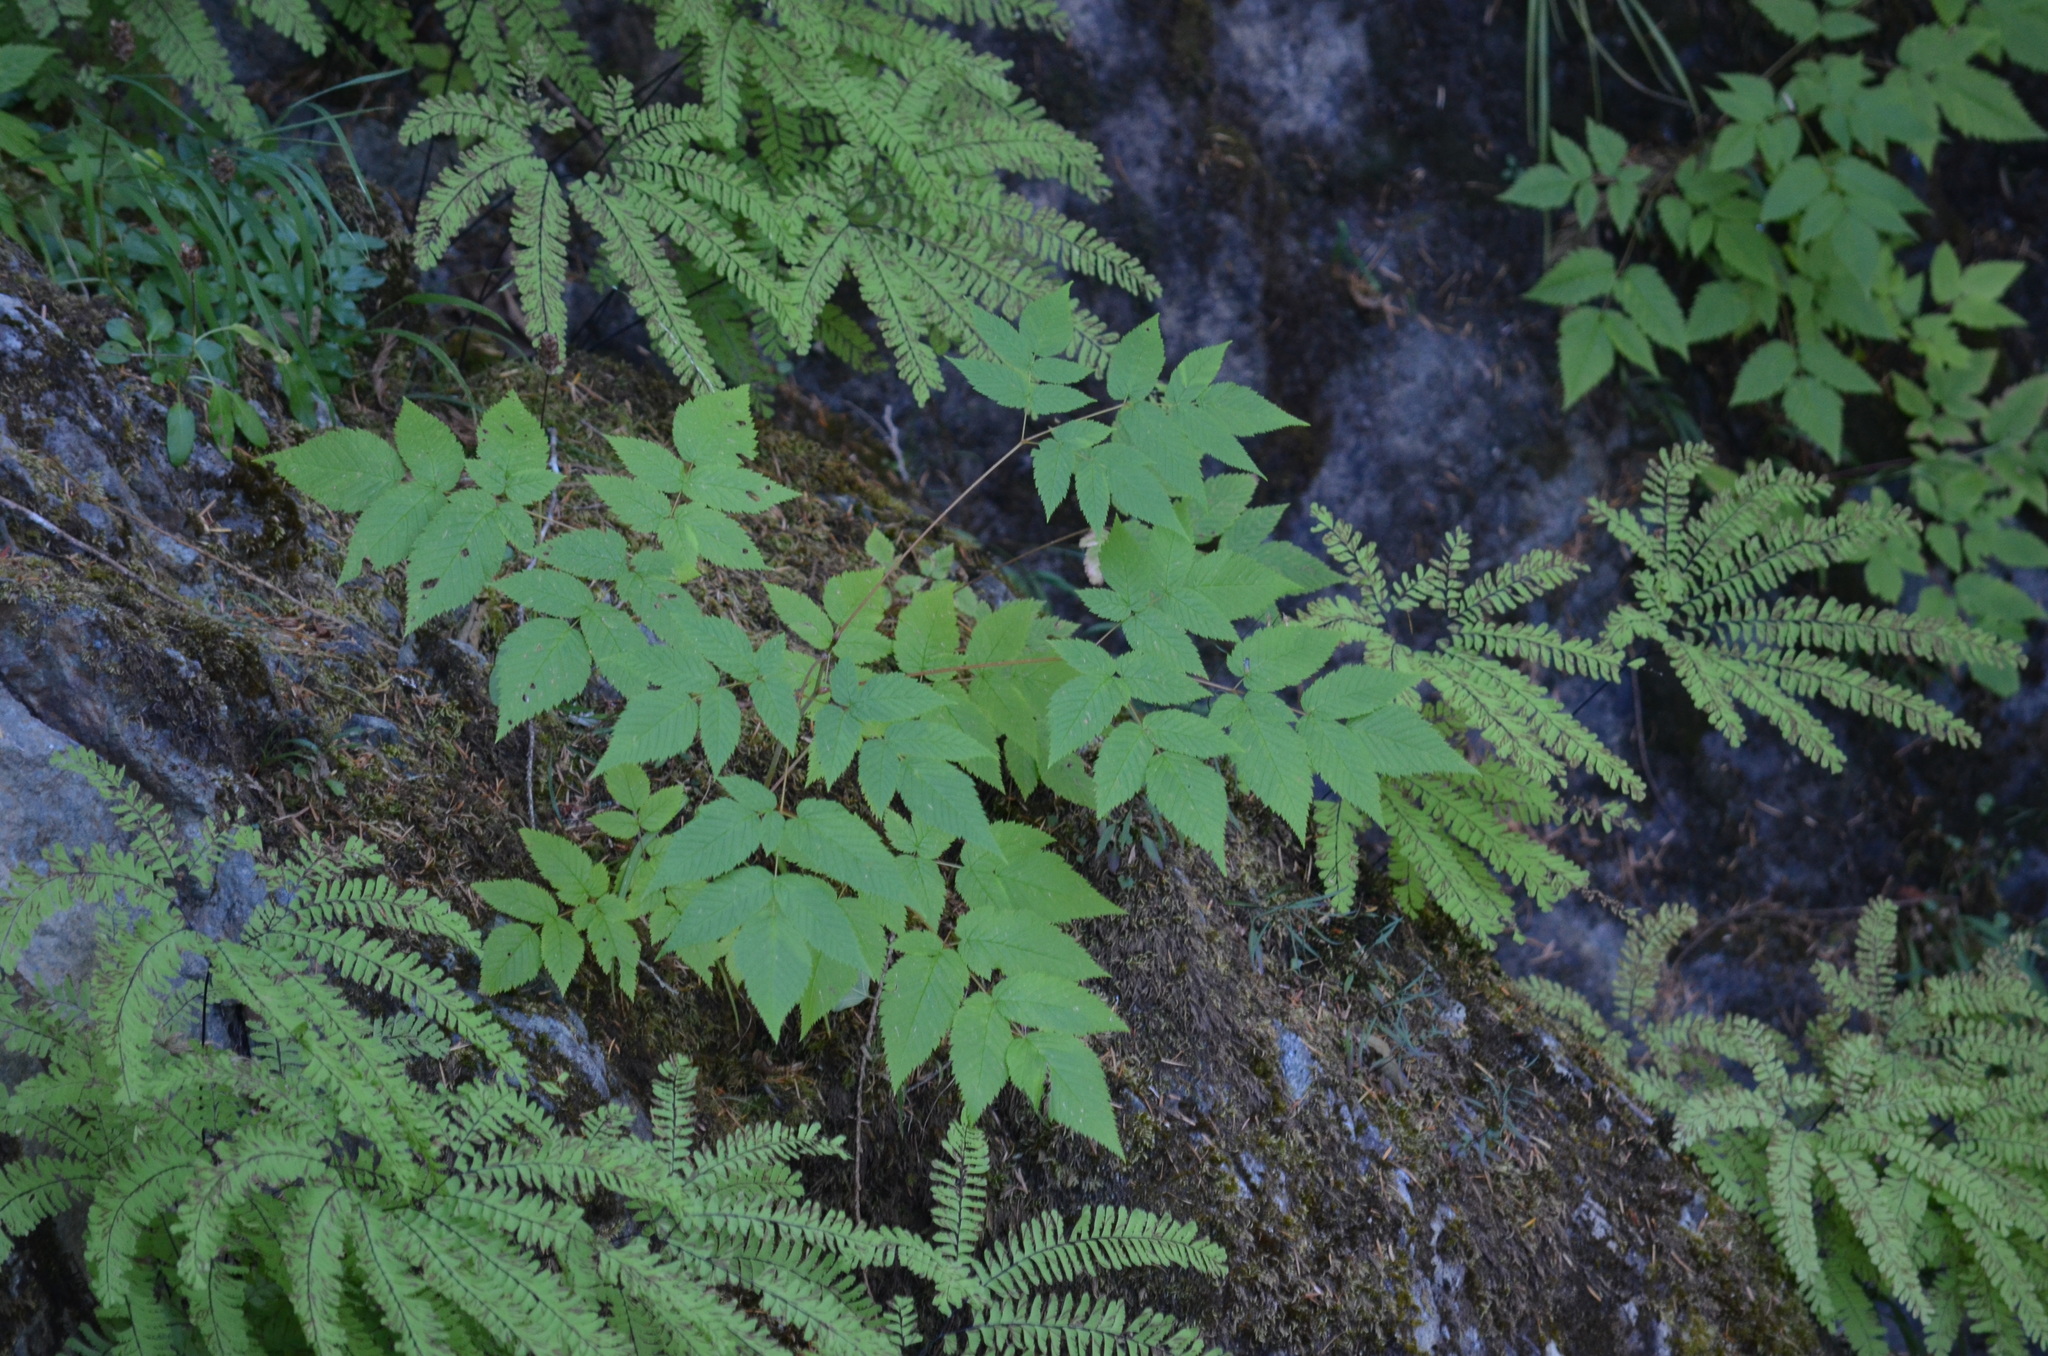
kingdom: Plantae
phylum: Tracheophyta
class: Magnoliopsida
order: Rosales
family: Rosaceae
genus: Aruncus
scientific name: Aruncus dioicus
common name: Buck's-beard
